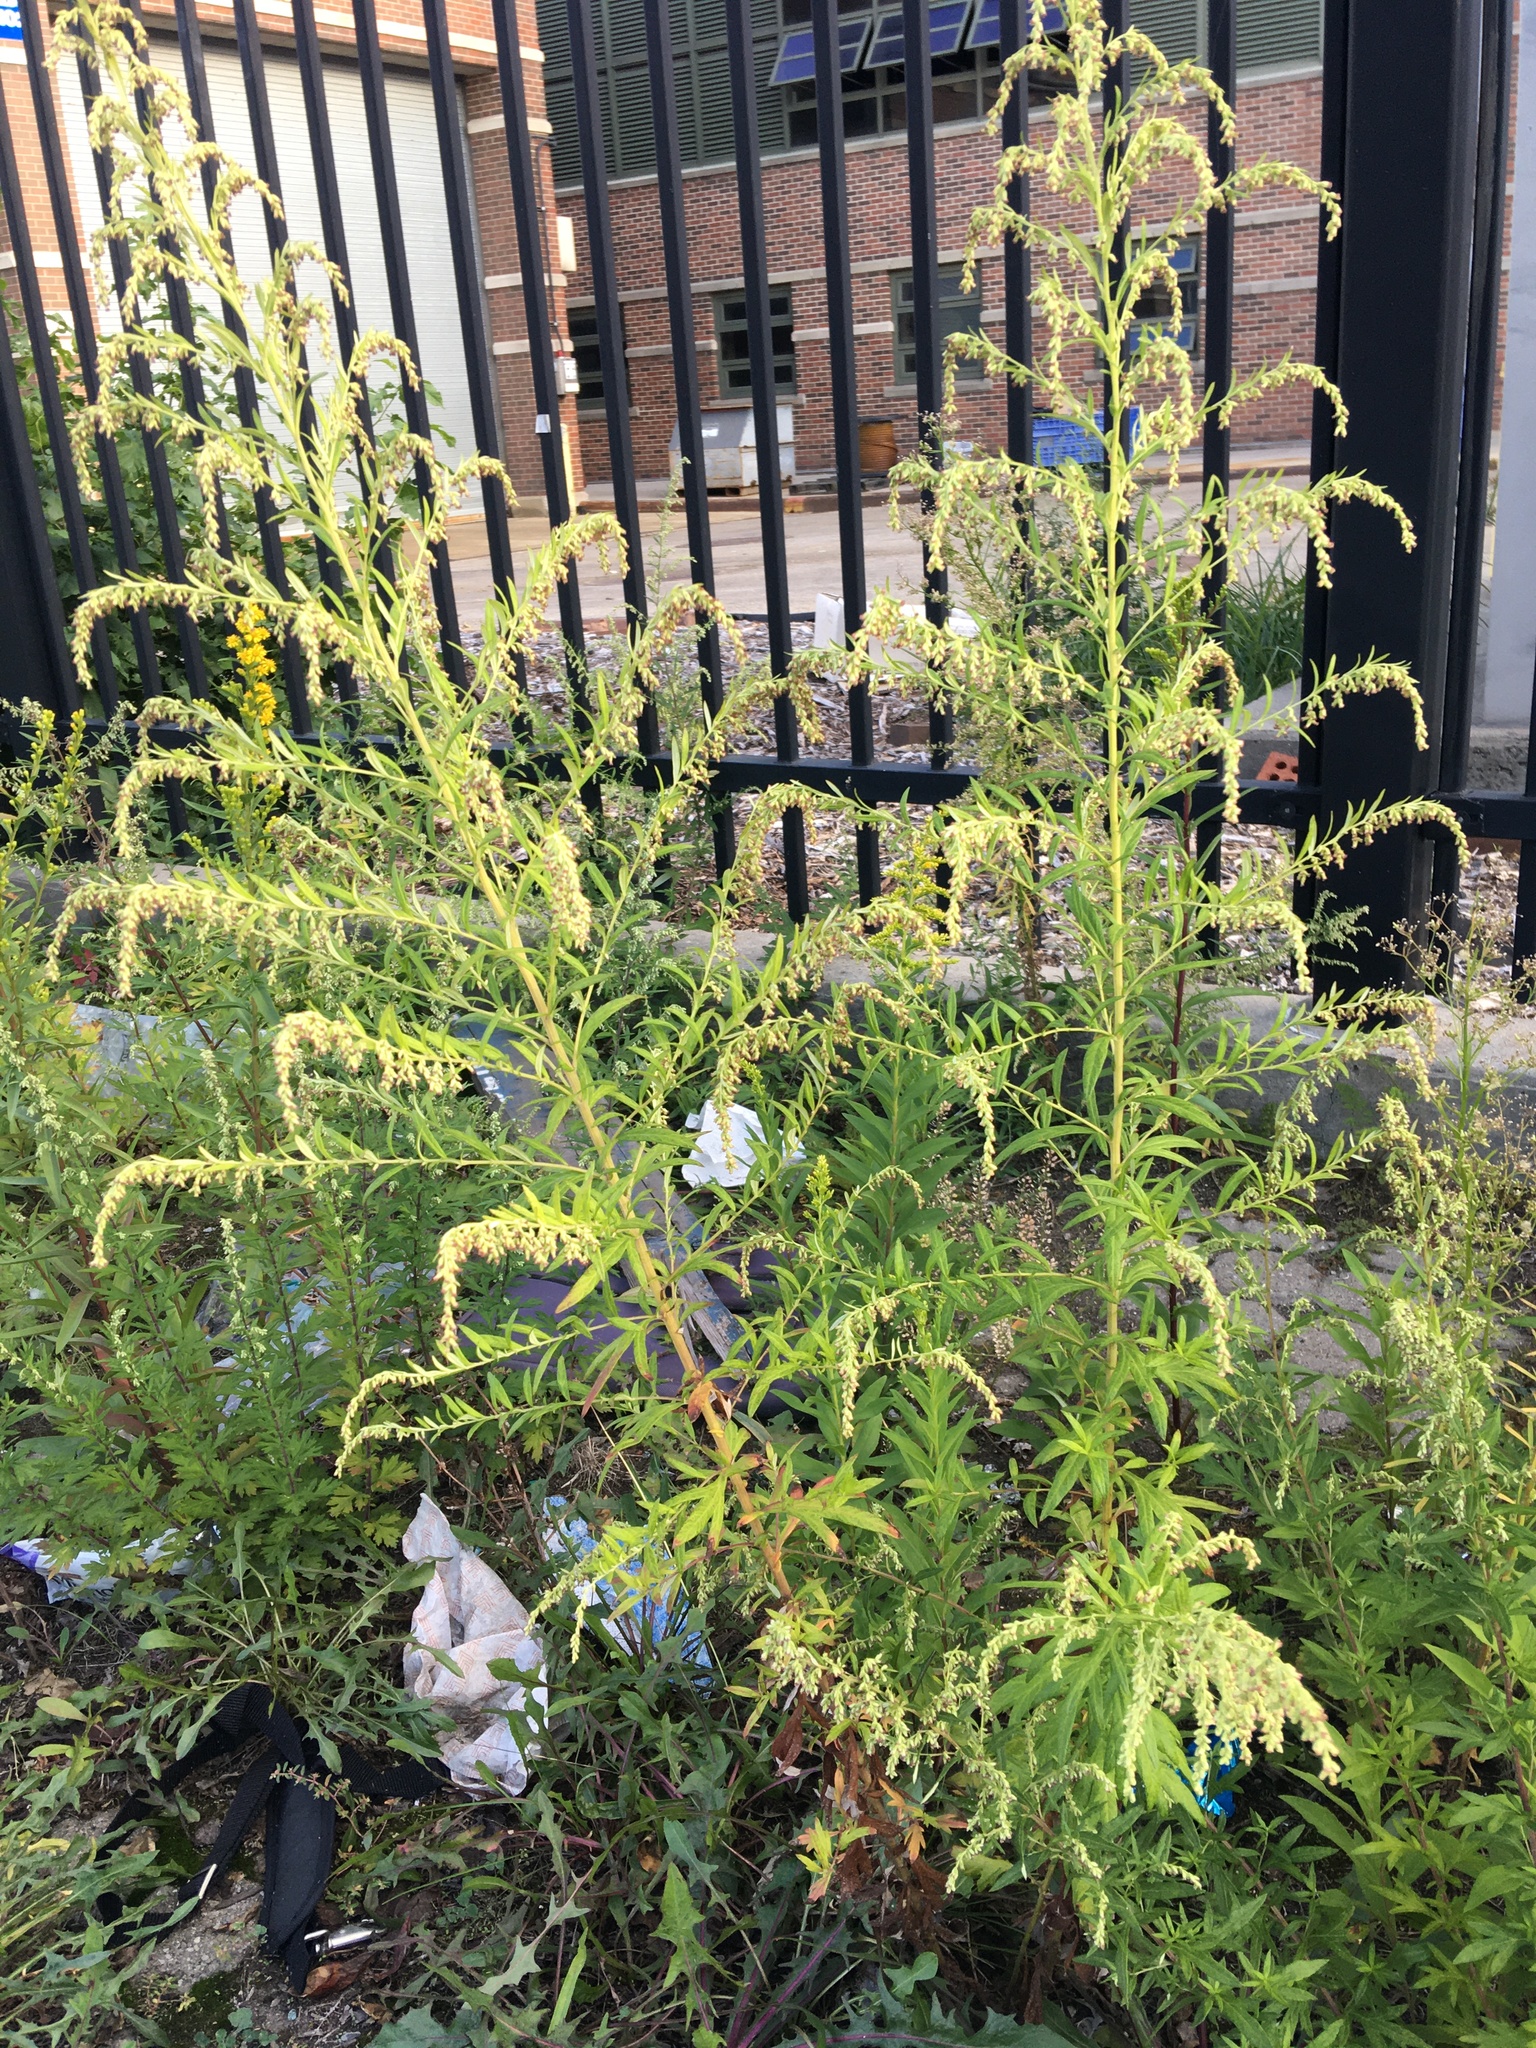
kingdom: Plantae
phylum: Tracheophyta
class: Magnoliopsida
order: Asterales
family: Asteraceae
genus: Artemisia
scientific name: Artemisia vulgaris
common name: Mugwort
